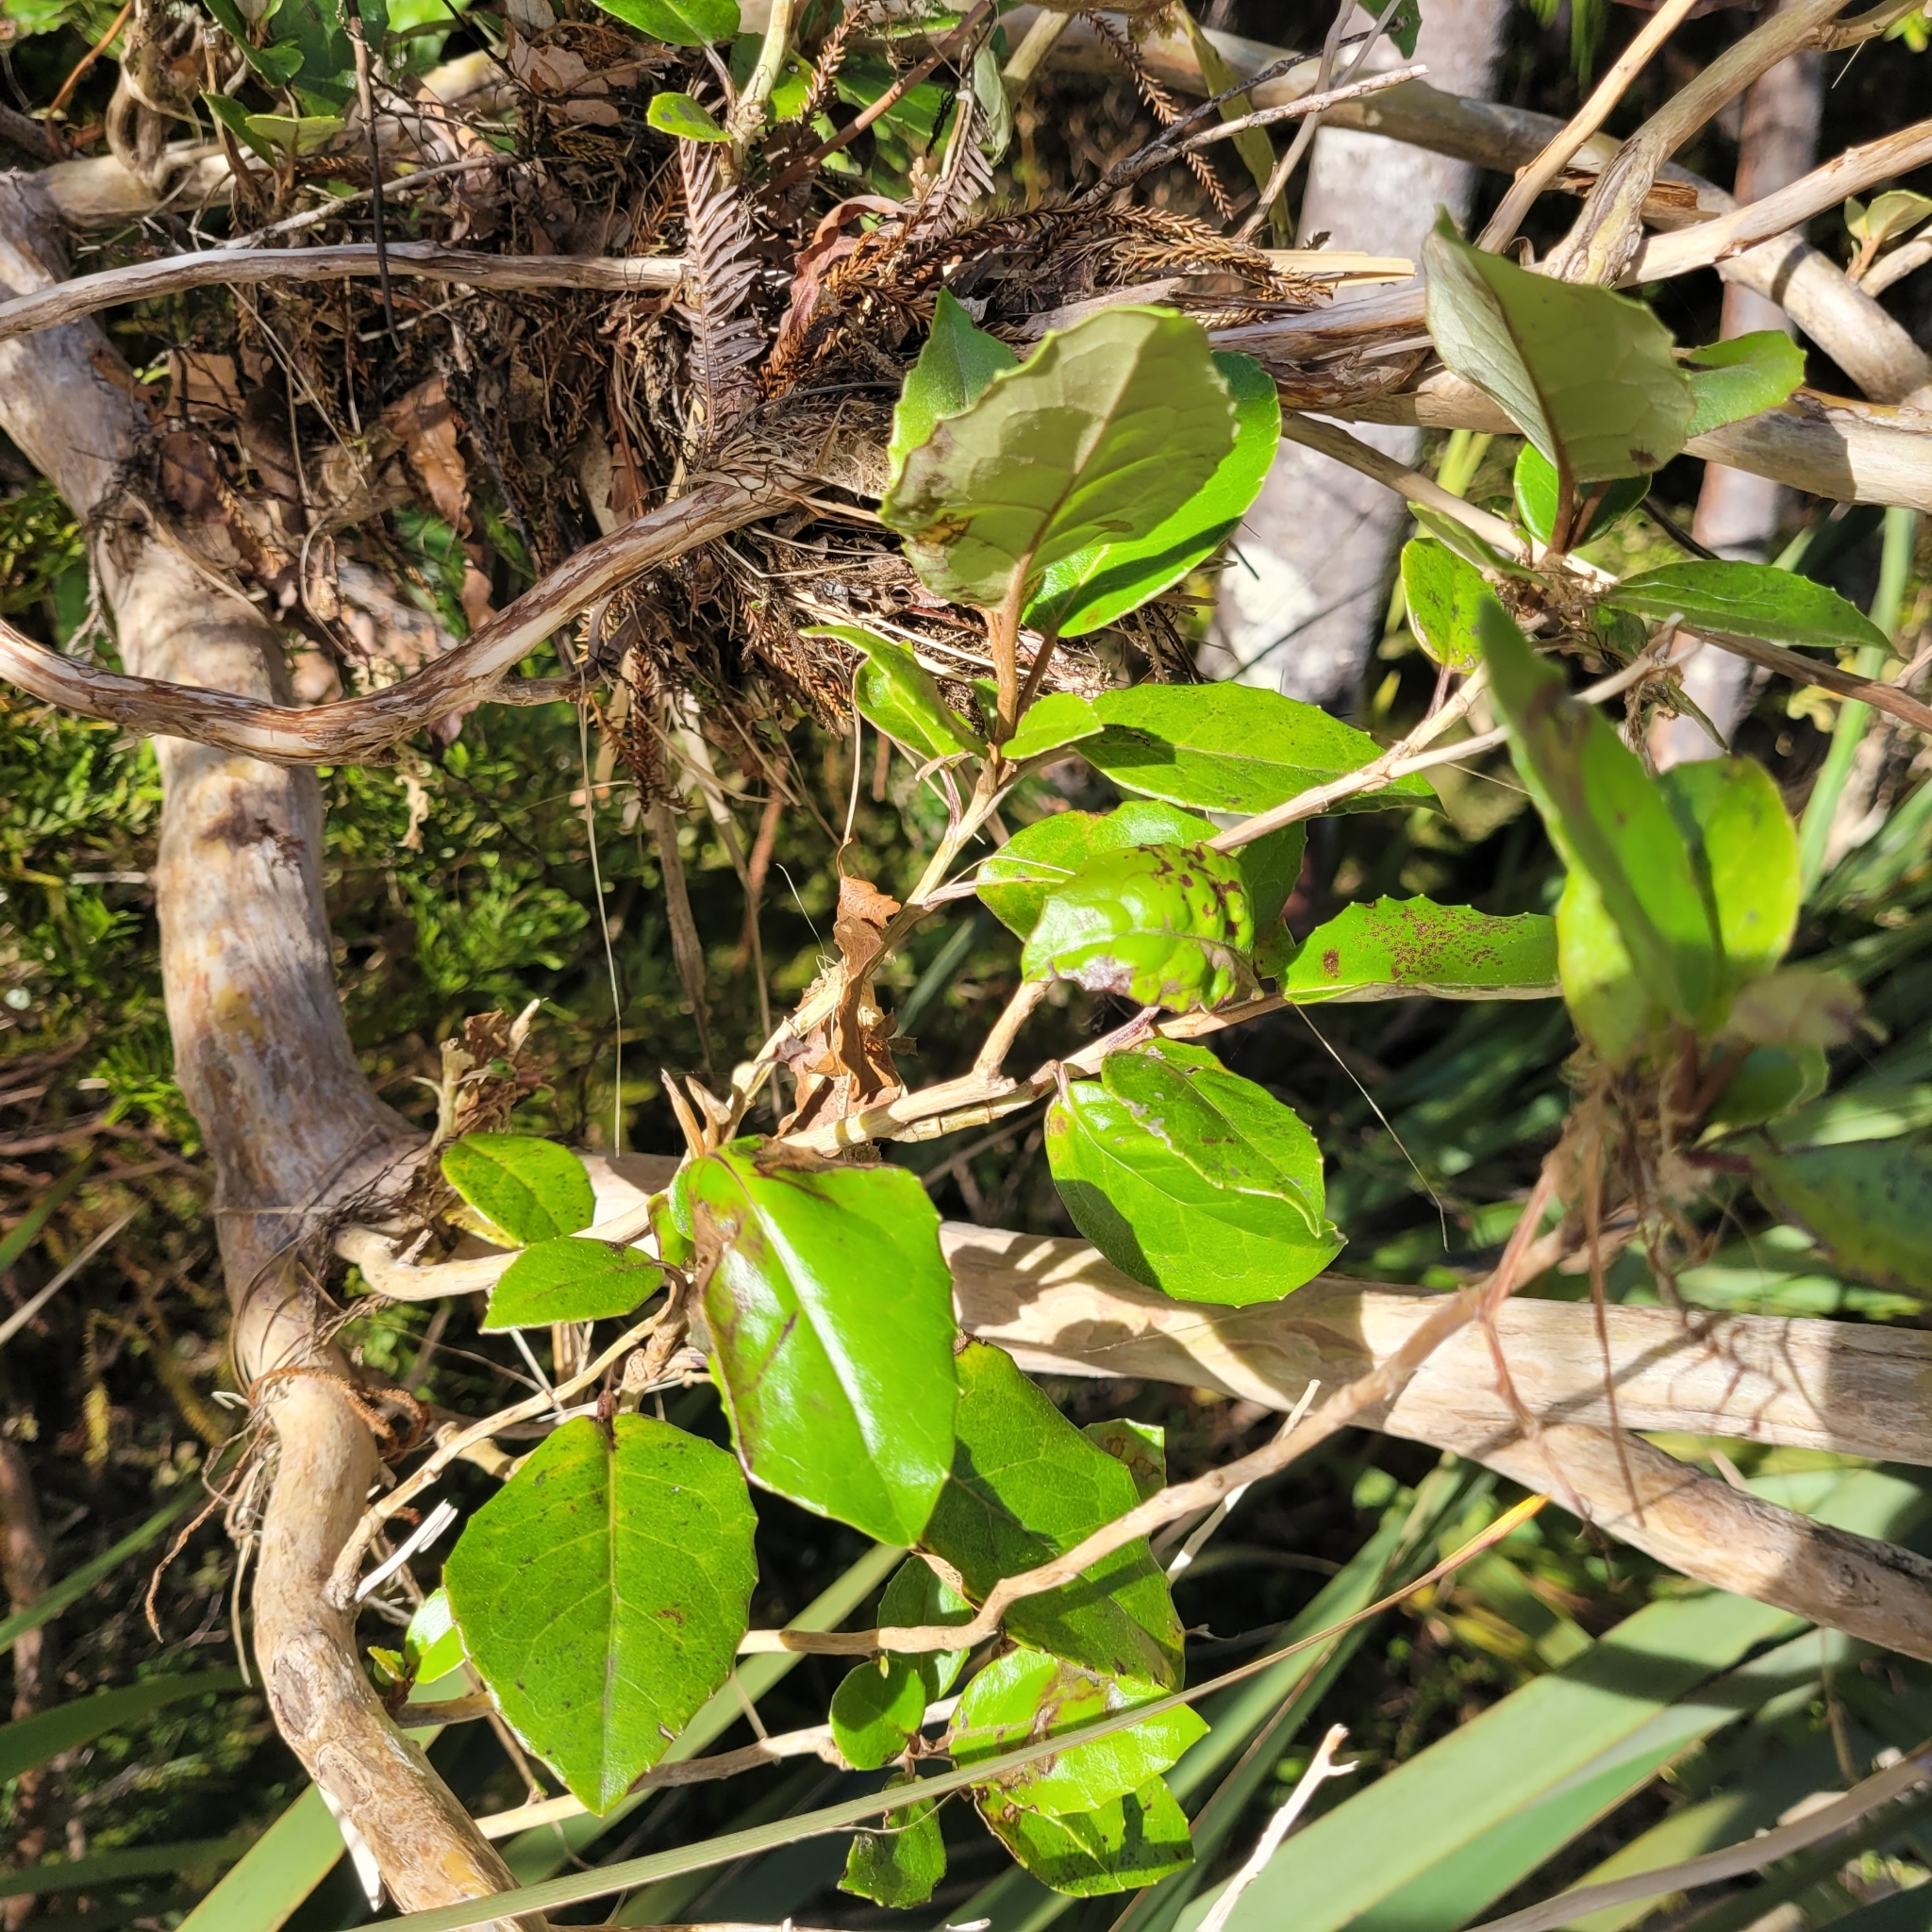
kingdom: Plantae
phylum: Tracheophyta
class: Magnoliopsida
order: Asterales
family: Asteraceae
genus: Olearia
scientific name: Olearia arborescens
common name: Glossy tree daisy
